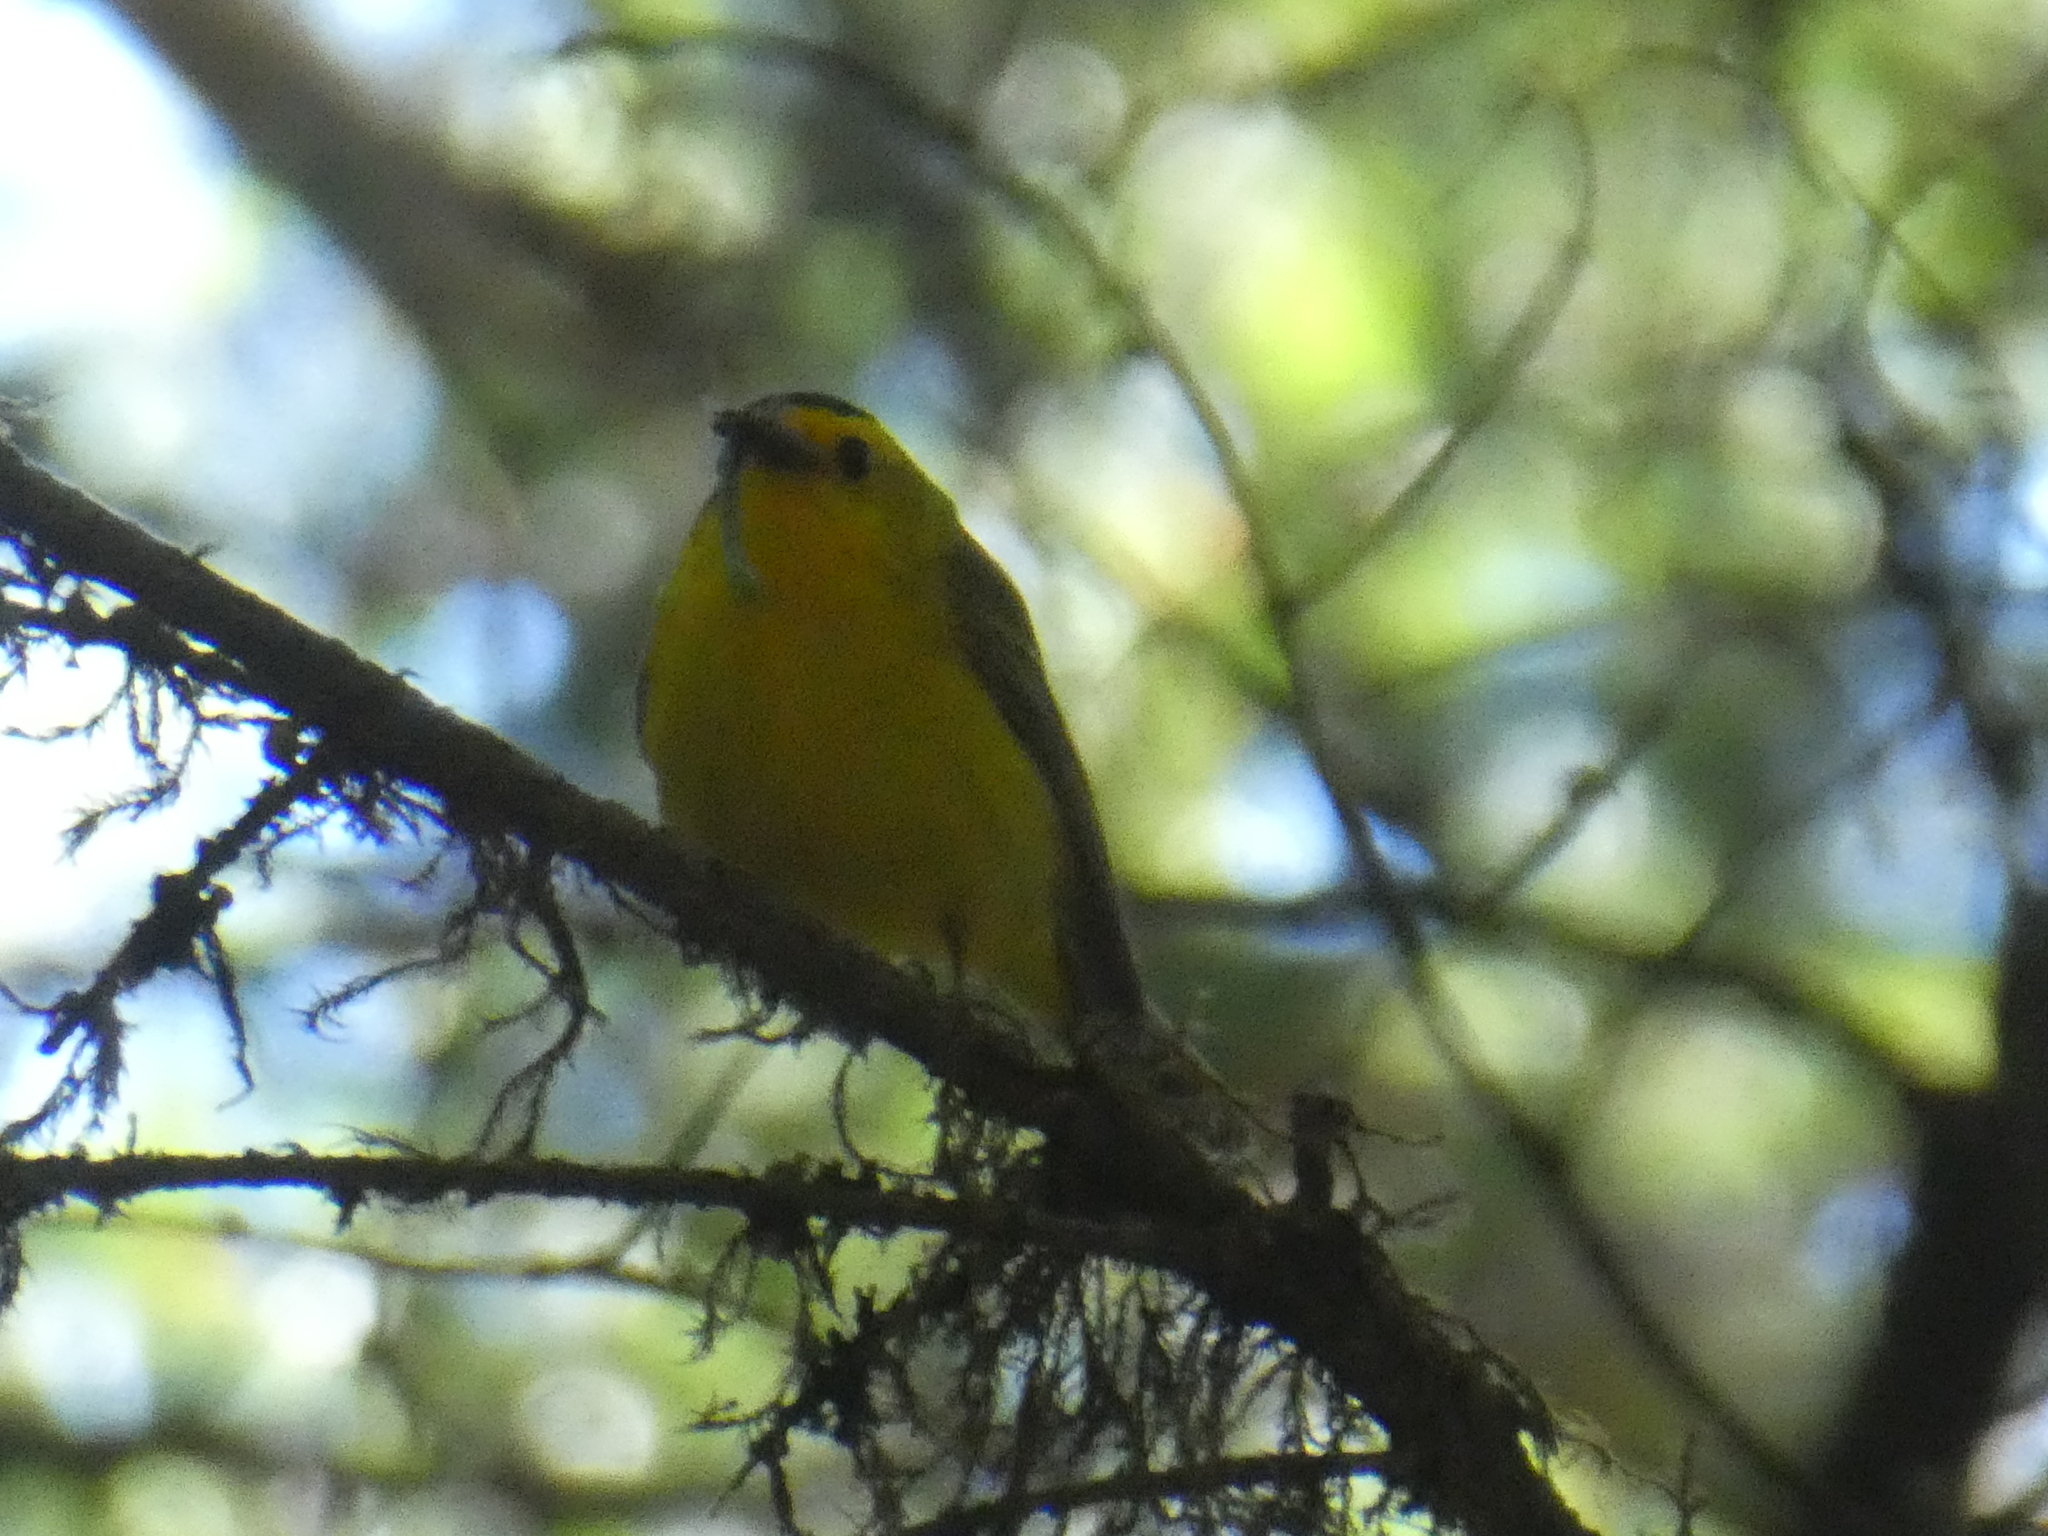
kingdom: Animalia
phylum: Chordata
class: Aves
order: Passeriformes
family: Parulidae
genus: Cardellina
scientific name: Cardellina pusilla
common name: Wilson's warbler
